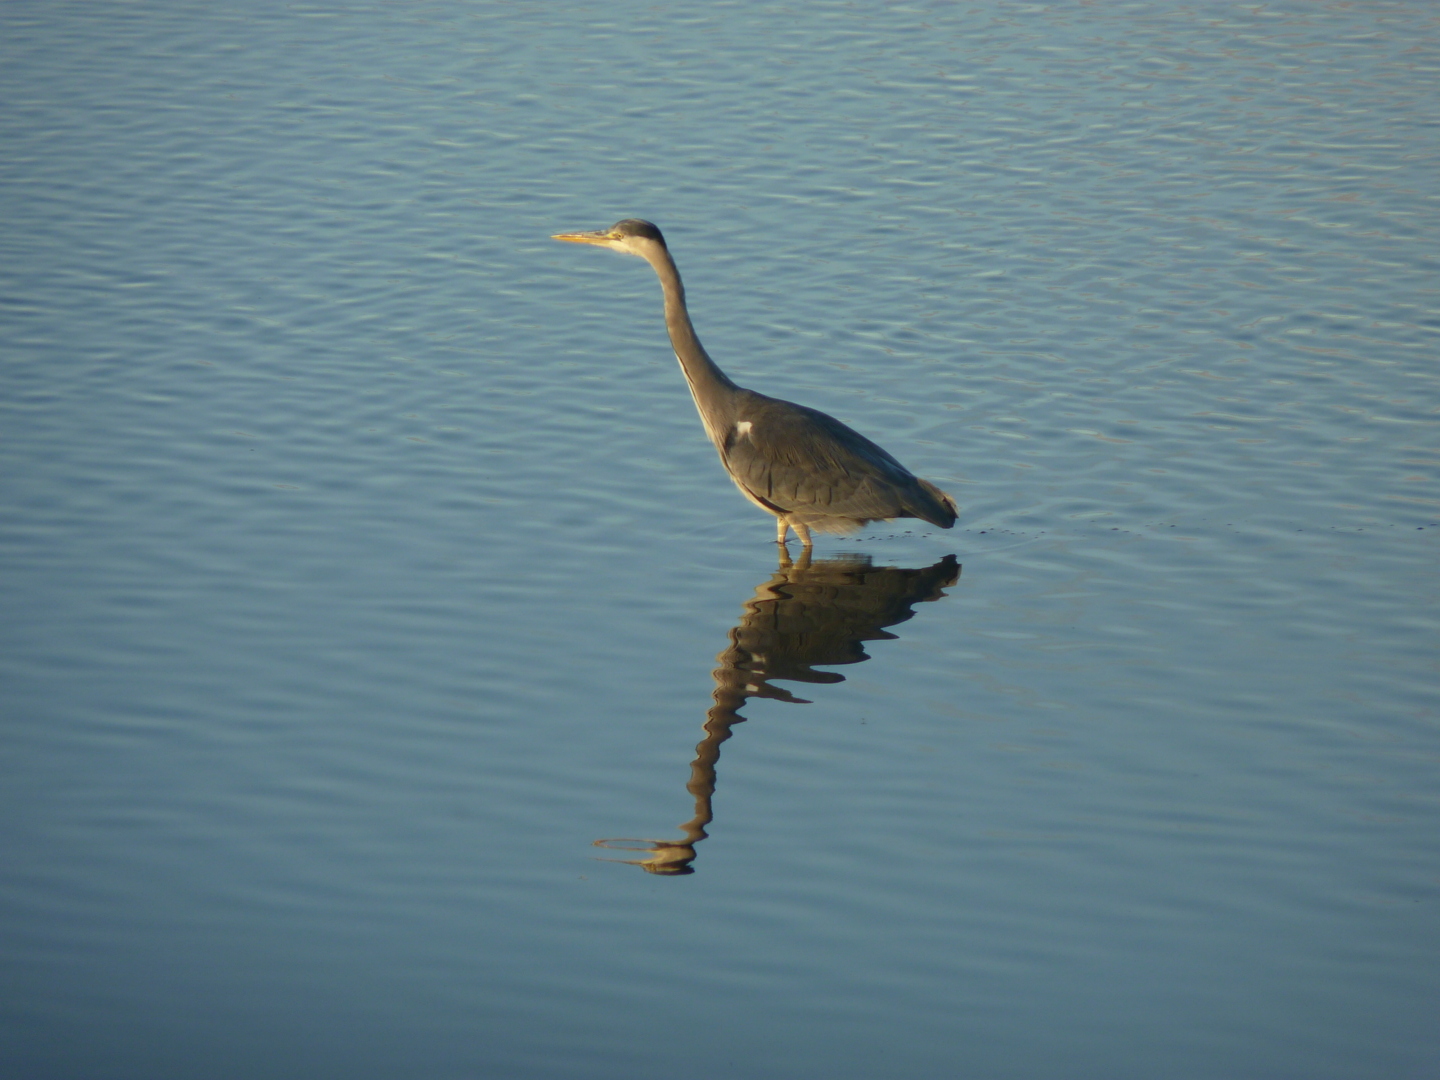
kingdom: Animalia
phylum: Chordata
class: Aves
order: Pelecaniformes
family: Ardeidae
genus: Ardea
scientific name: Ardea cinerea
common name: Grey heron
